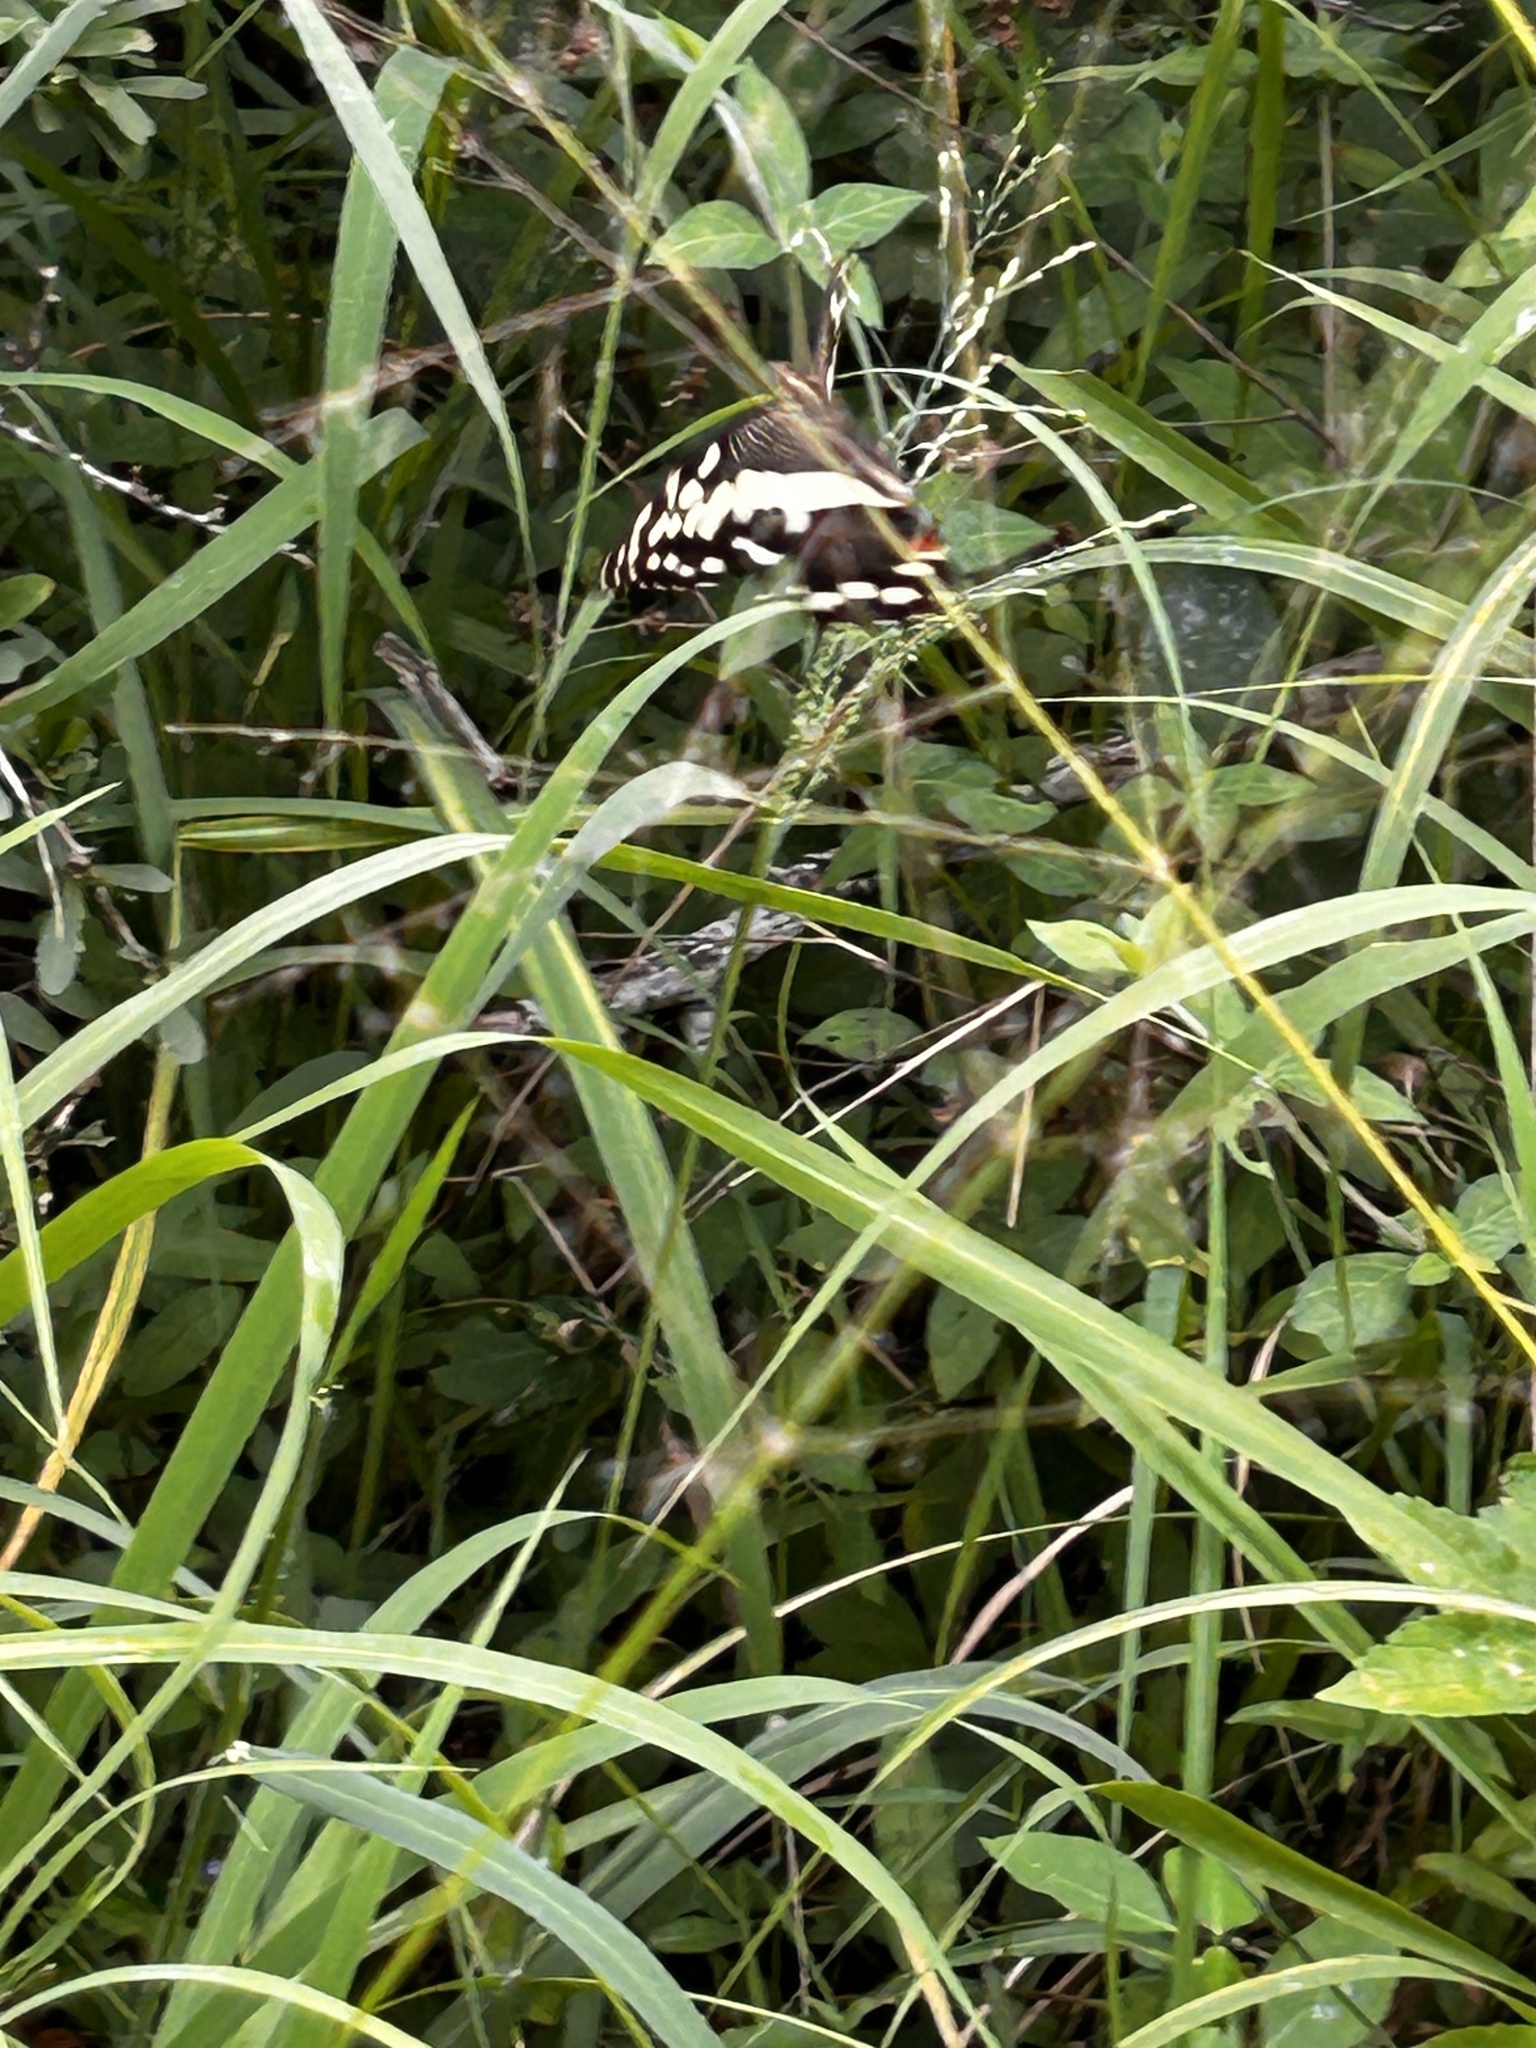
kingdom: Animalia
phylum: Arthropoda
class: Insecta
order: Lepidoptera
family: Papilionidae
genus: Papilio
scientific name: Papilio demodocus
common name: Christmas butterfly
